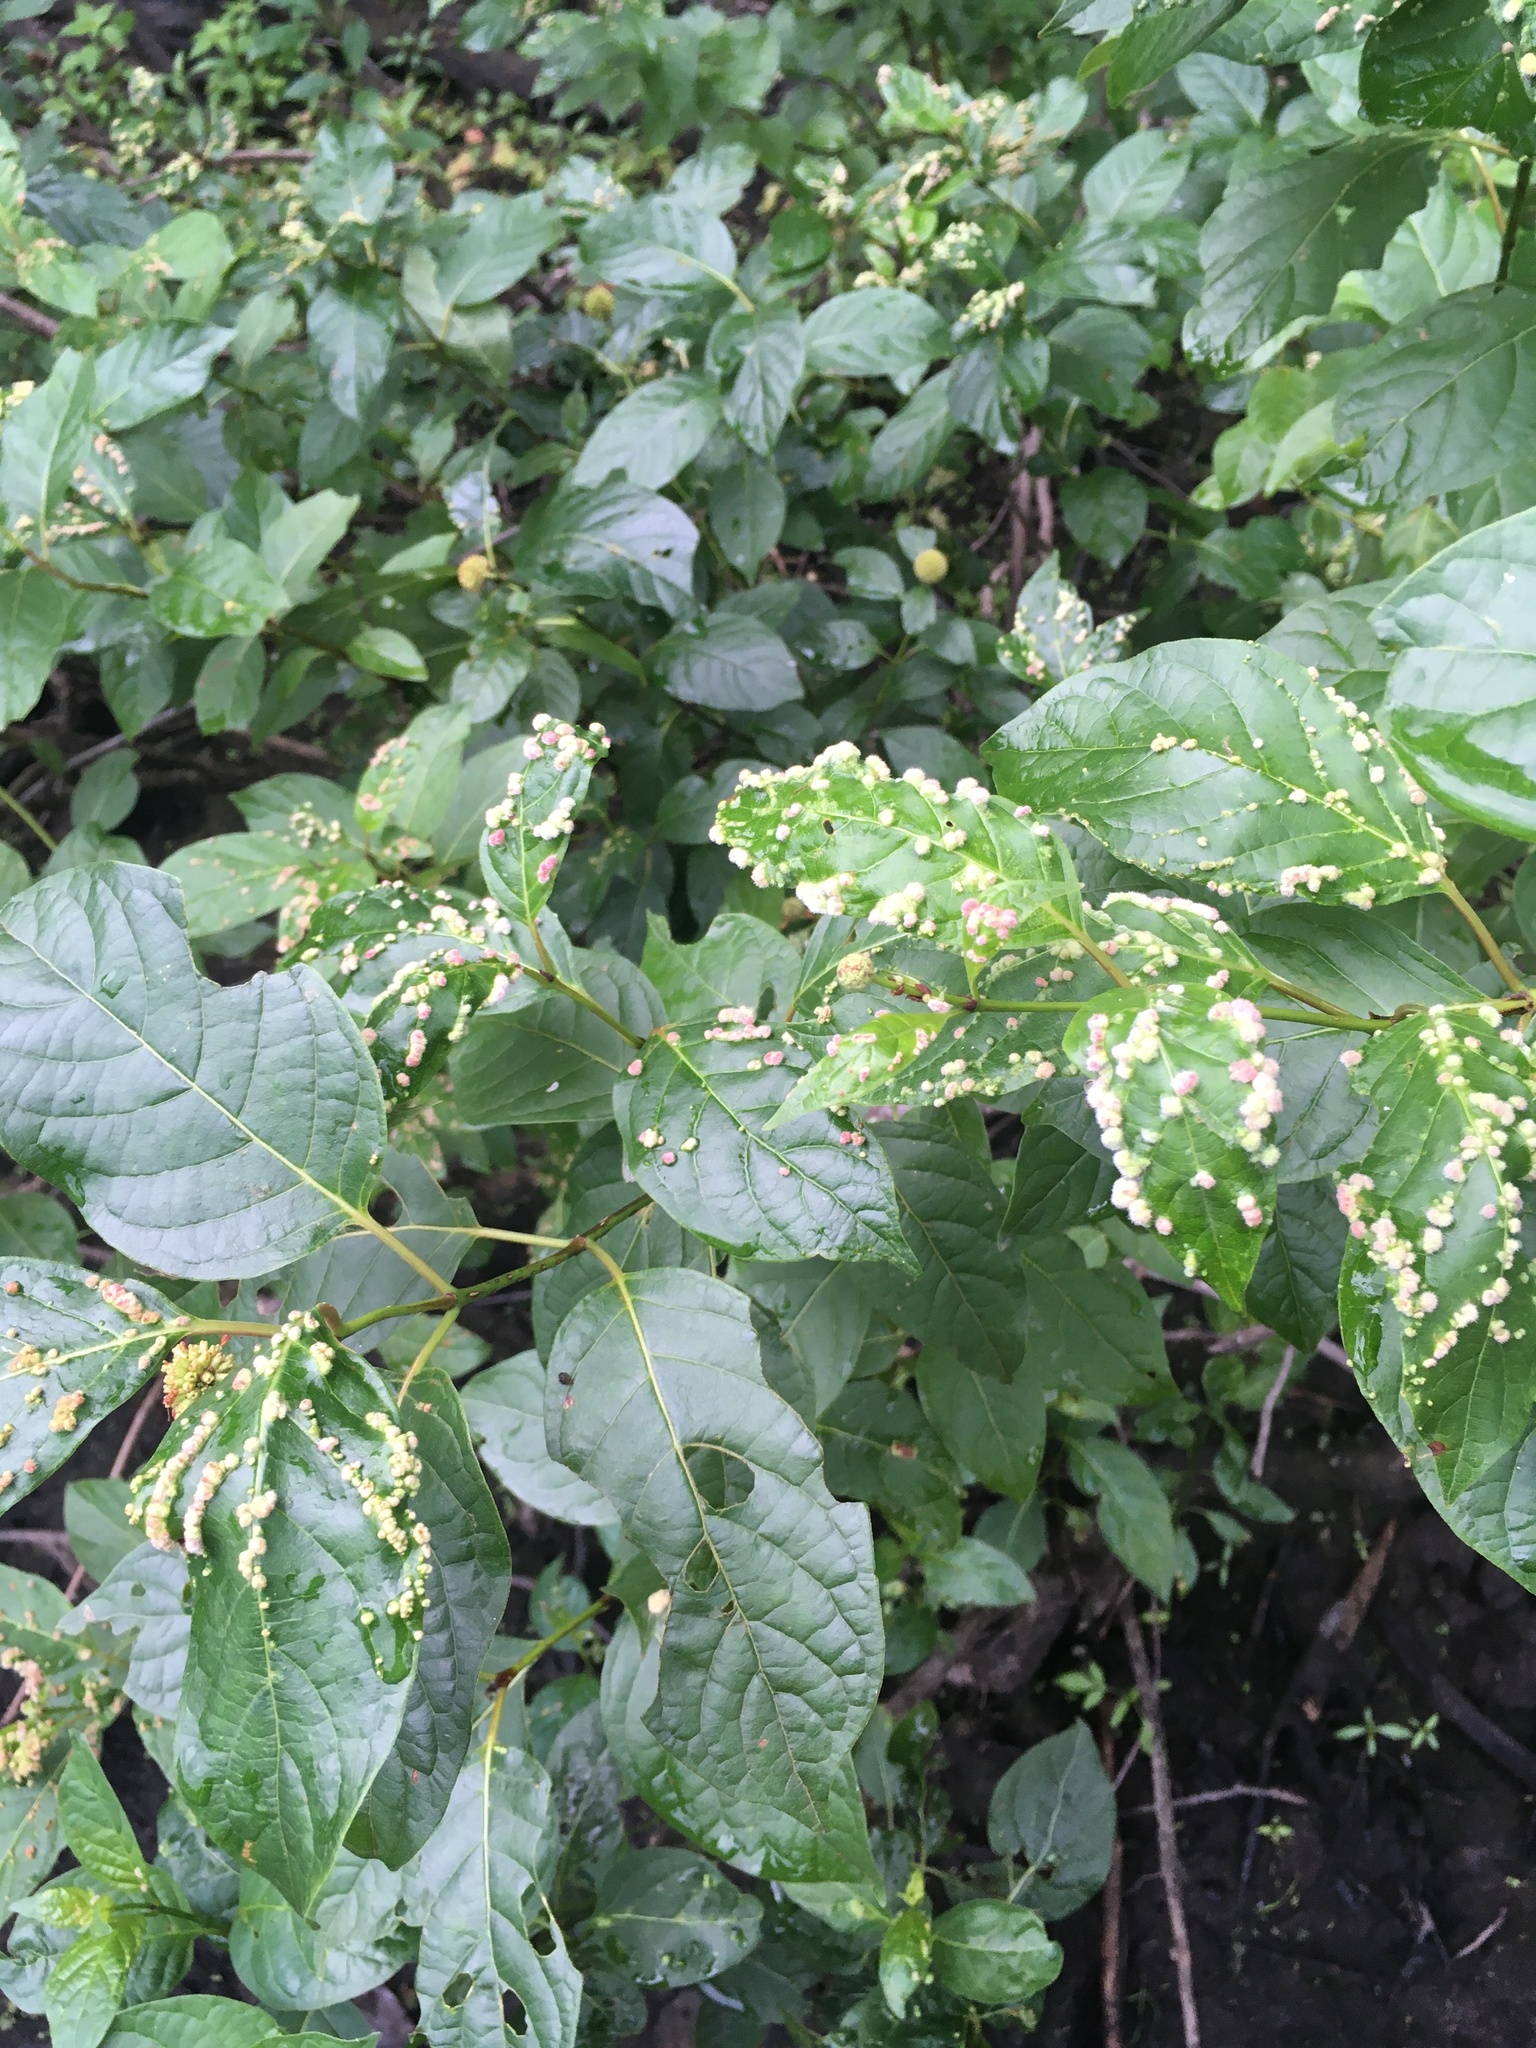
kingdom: Animalia
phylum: Arthropoda
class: Arachnida
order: Trombidiformes
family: Eriophyidae
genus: Aceria
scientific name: Aceria
